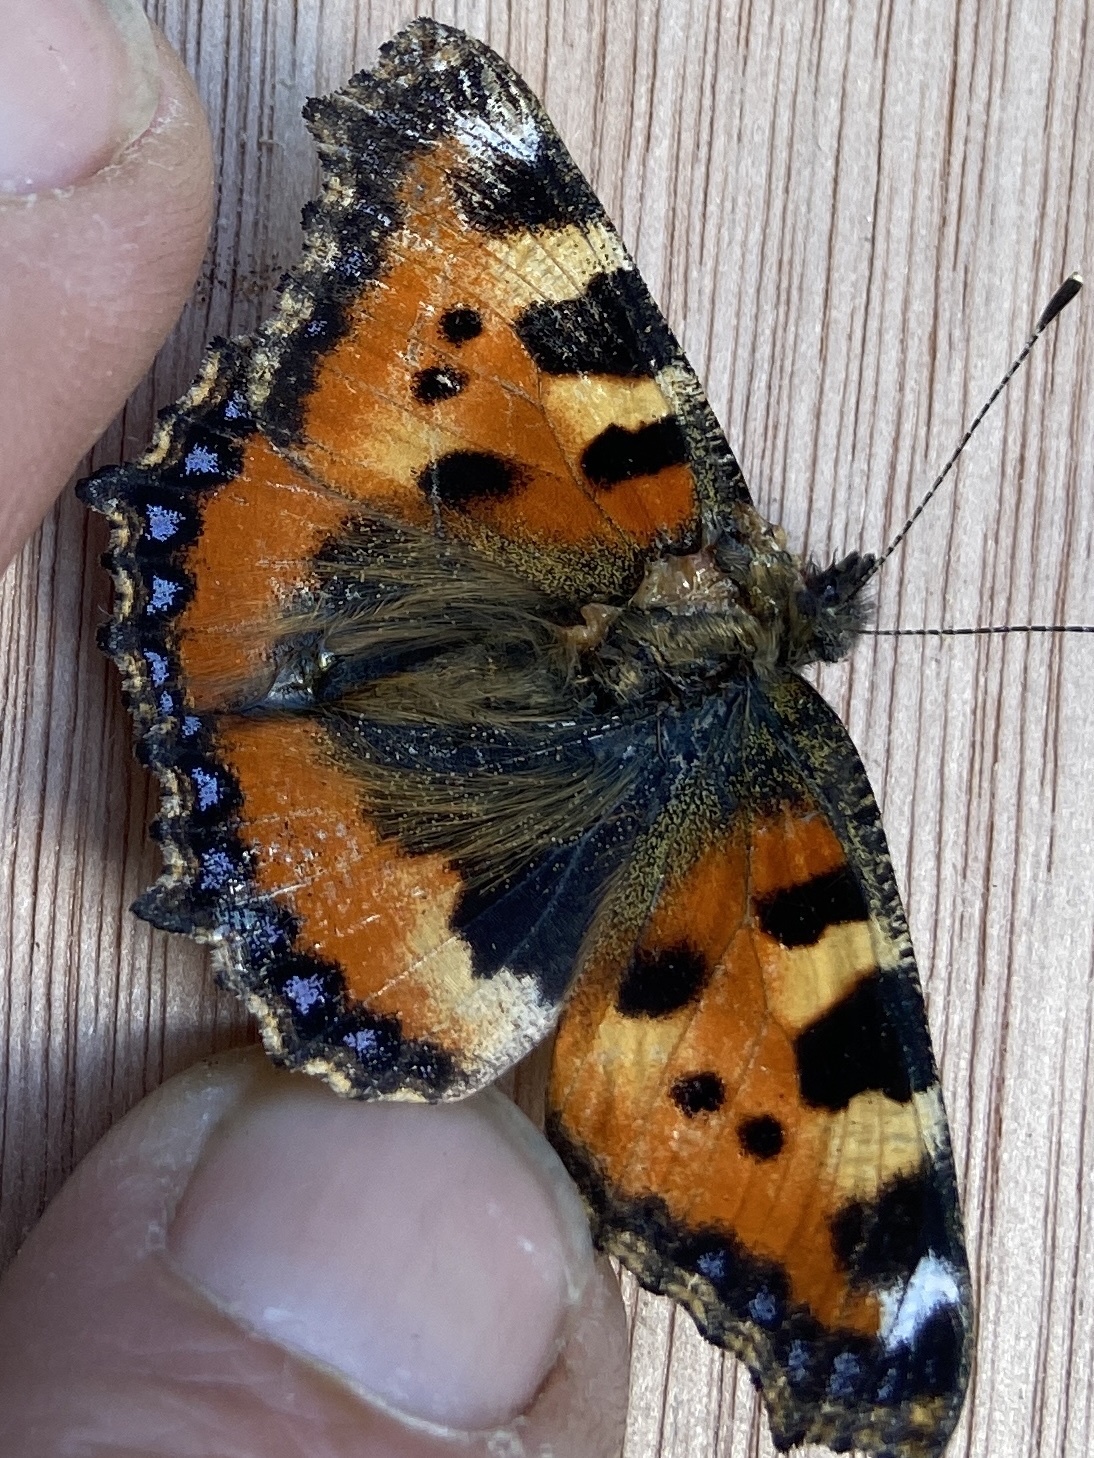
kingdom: Animalia
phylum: Arthropoda
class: Insecta
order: Lepidoptera
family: Nymphalidae
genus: Aglais
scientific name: Aglais urticae
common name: Small tortoiseshell
